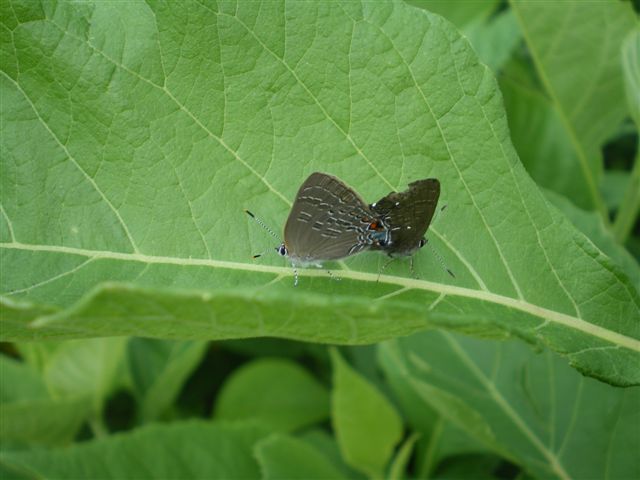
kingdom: Animalia
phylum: Arthropoda
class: Insecta
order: Lepidoptera
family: Lycaenidae
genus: Satyrium
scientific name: Satyrium calanus
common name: Banded hairstreak
